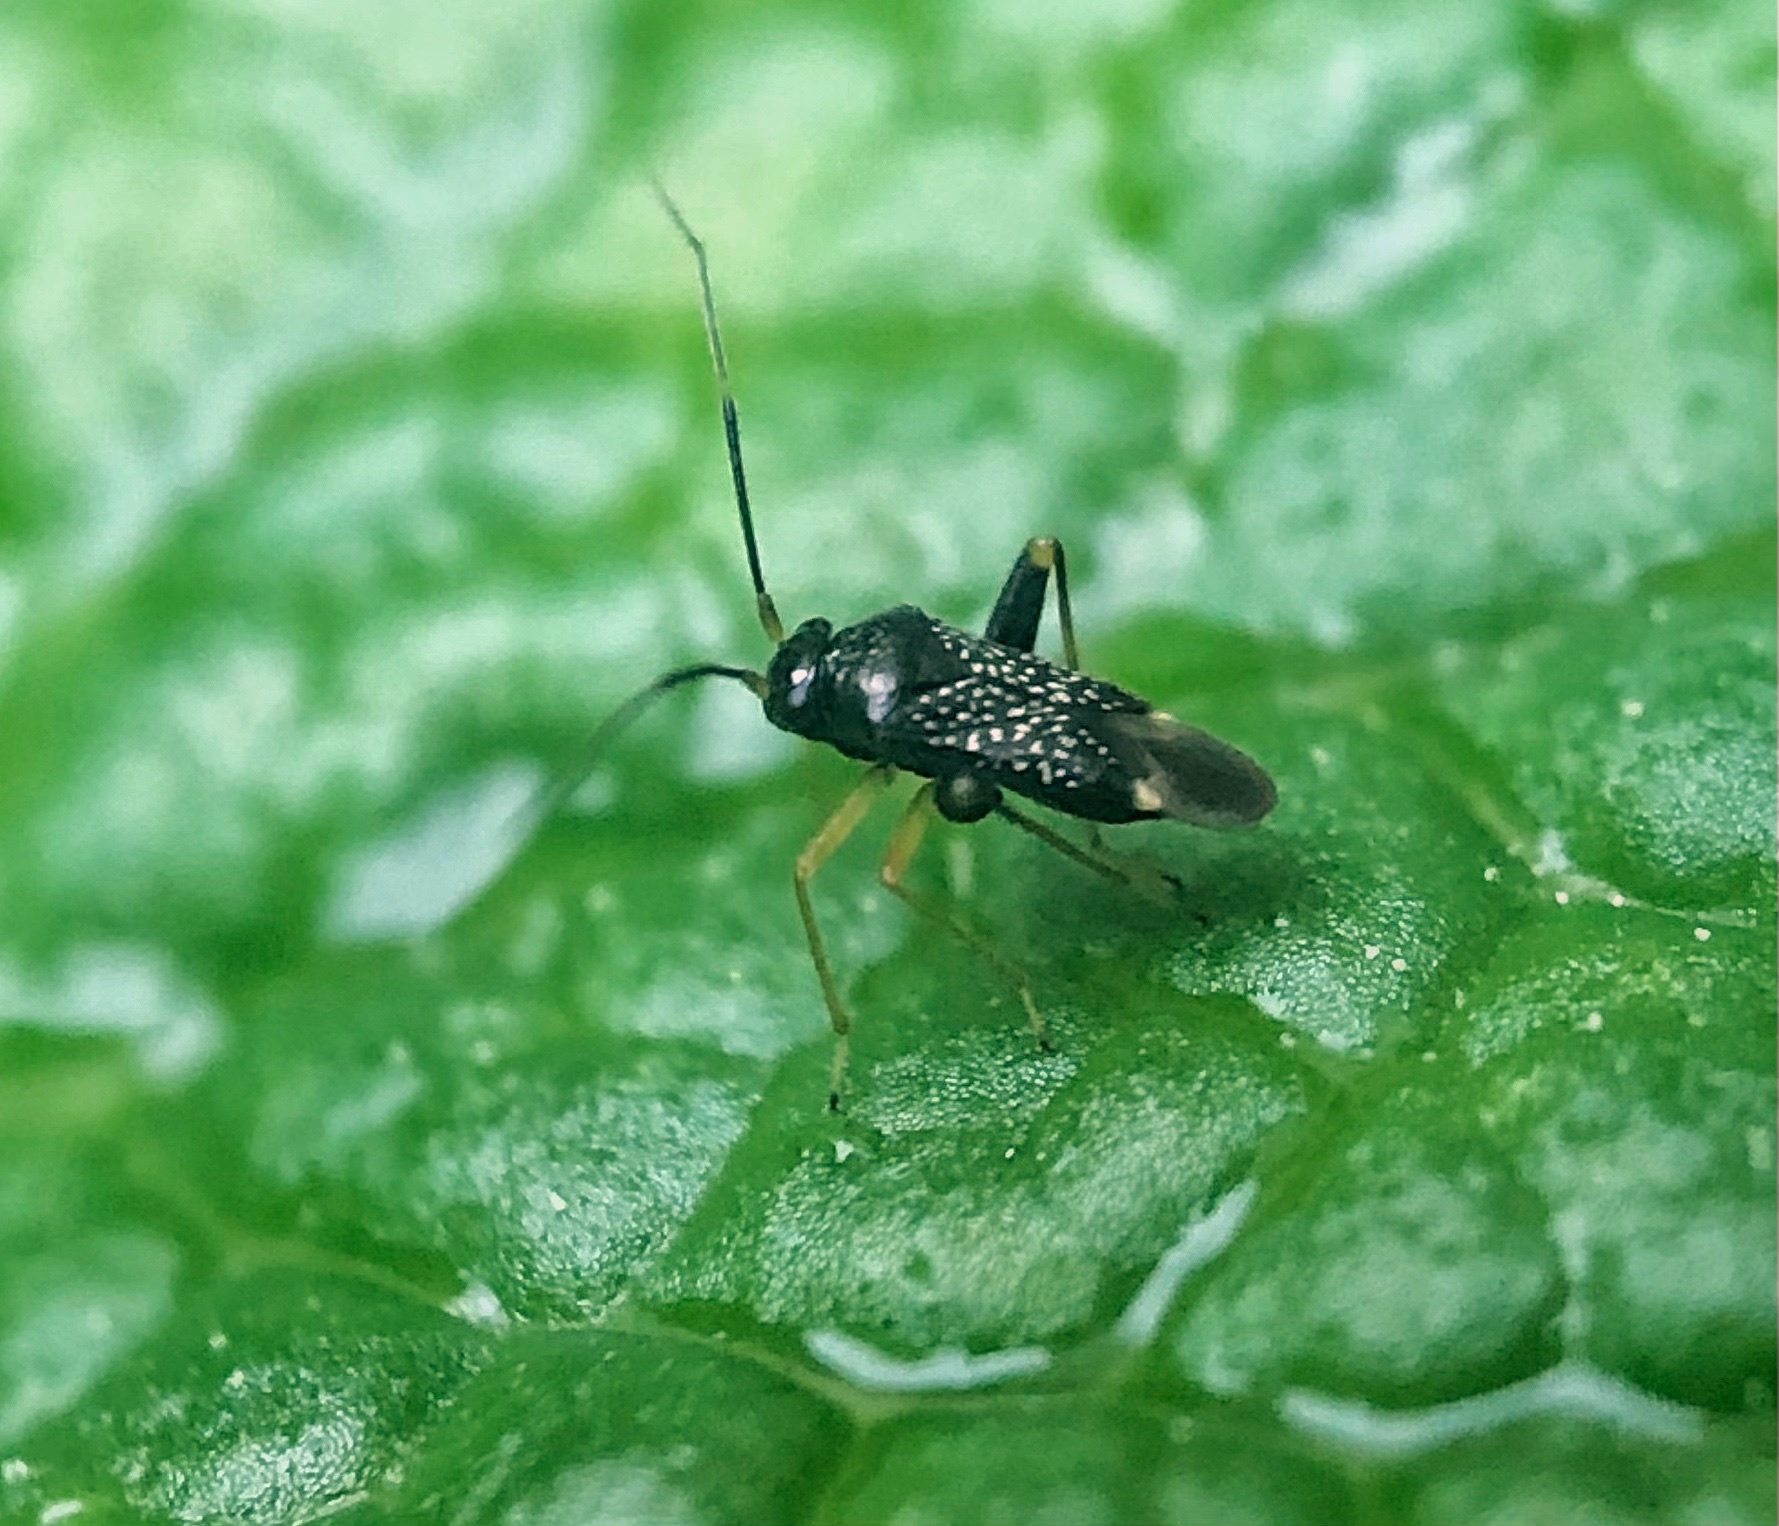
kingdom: Animalia
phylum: Arthropoda
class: Insecta
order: Hemiptera
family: Miridae
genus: Microtechnites
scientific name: Microtechnites bractatus
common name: Garden fleahopper
